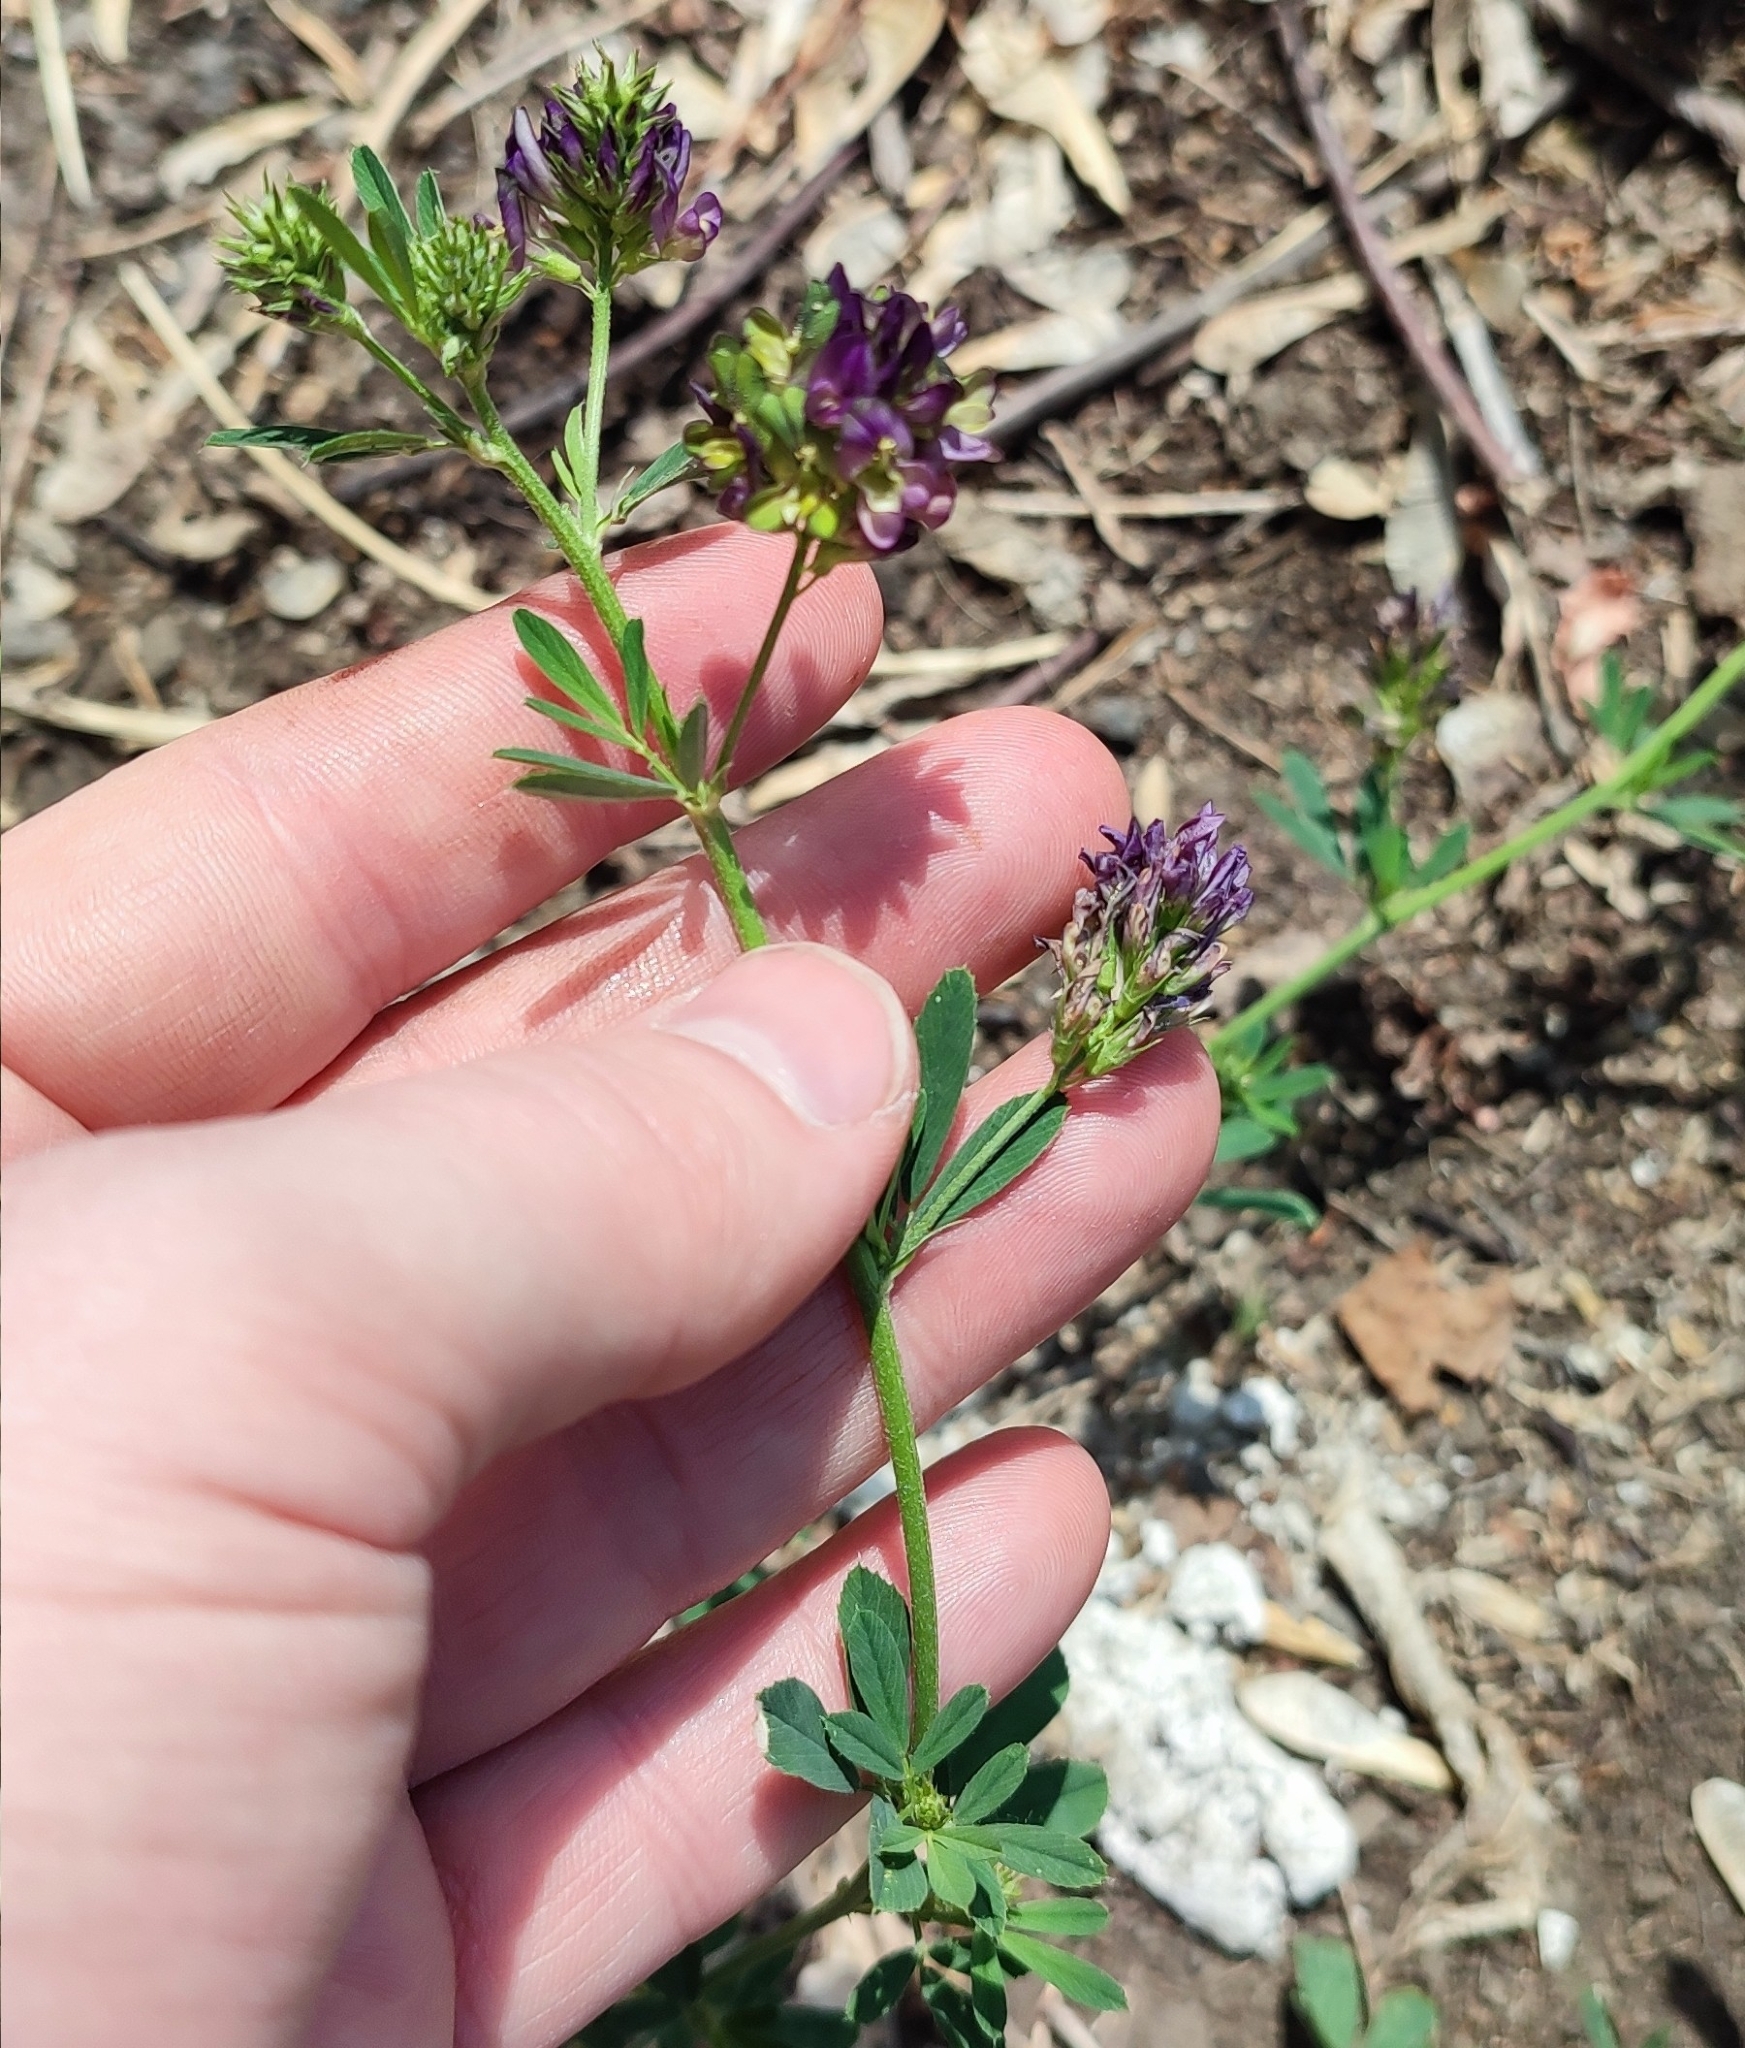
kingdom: Plantae
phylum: Tracheophyta
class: Magnoliopsida
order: Fabales
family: Fabaceae
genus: Medicago
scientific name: Medicago varia
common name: Sand lucerne
